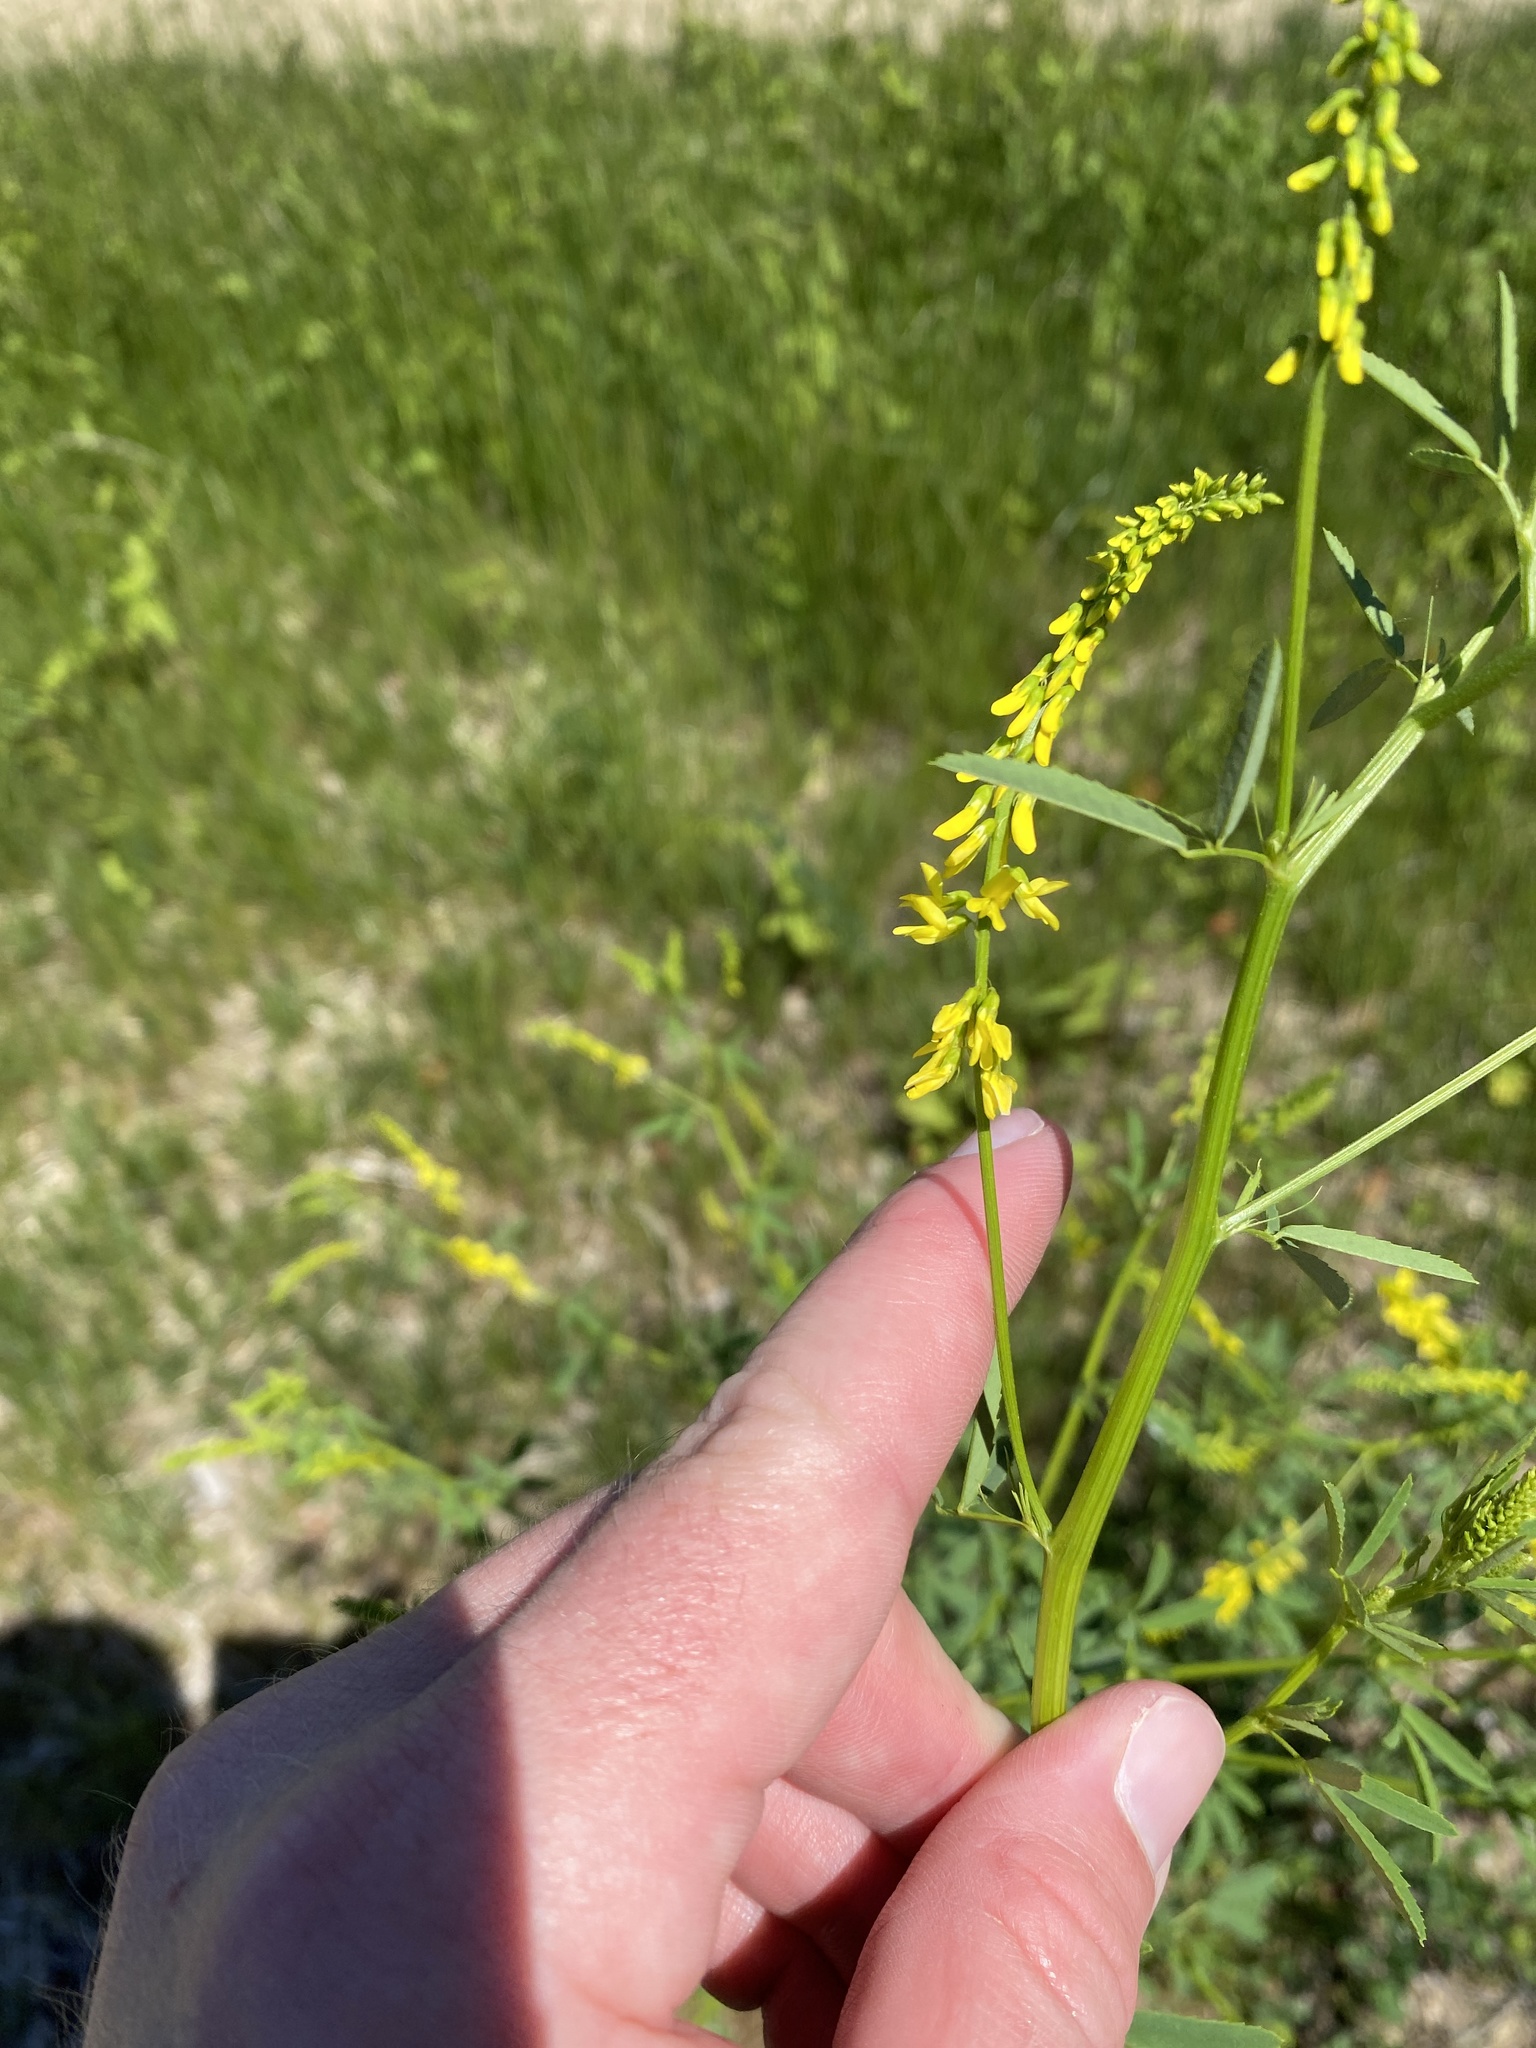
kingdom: Plantae
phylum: Tracheophyta
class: Magnoliopsida
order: Fabales
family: Fabaceae
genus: Melilotus
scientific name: Melilotus officinalis
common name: Sweetclover
